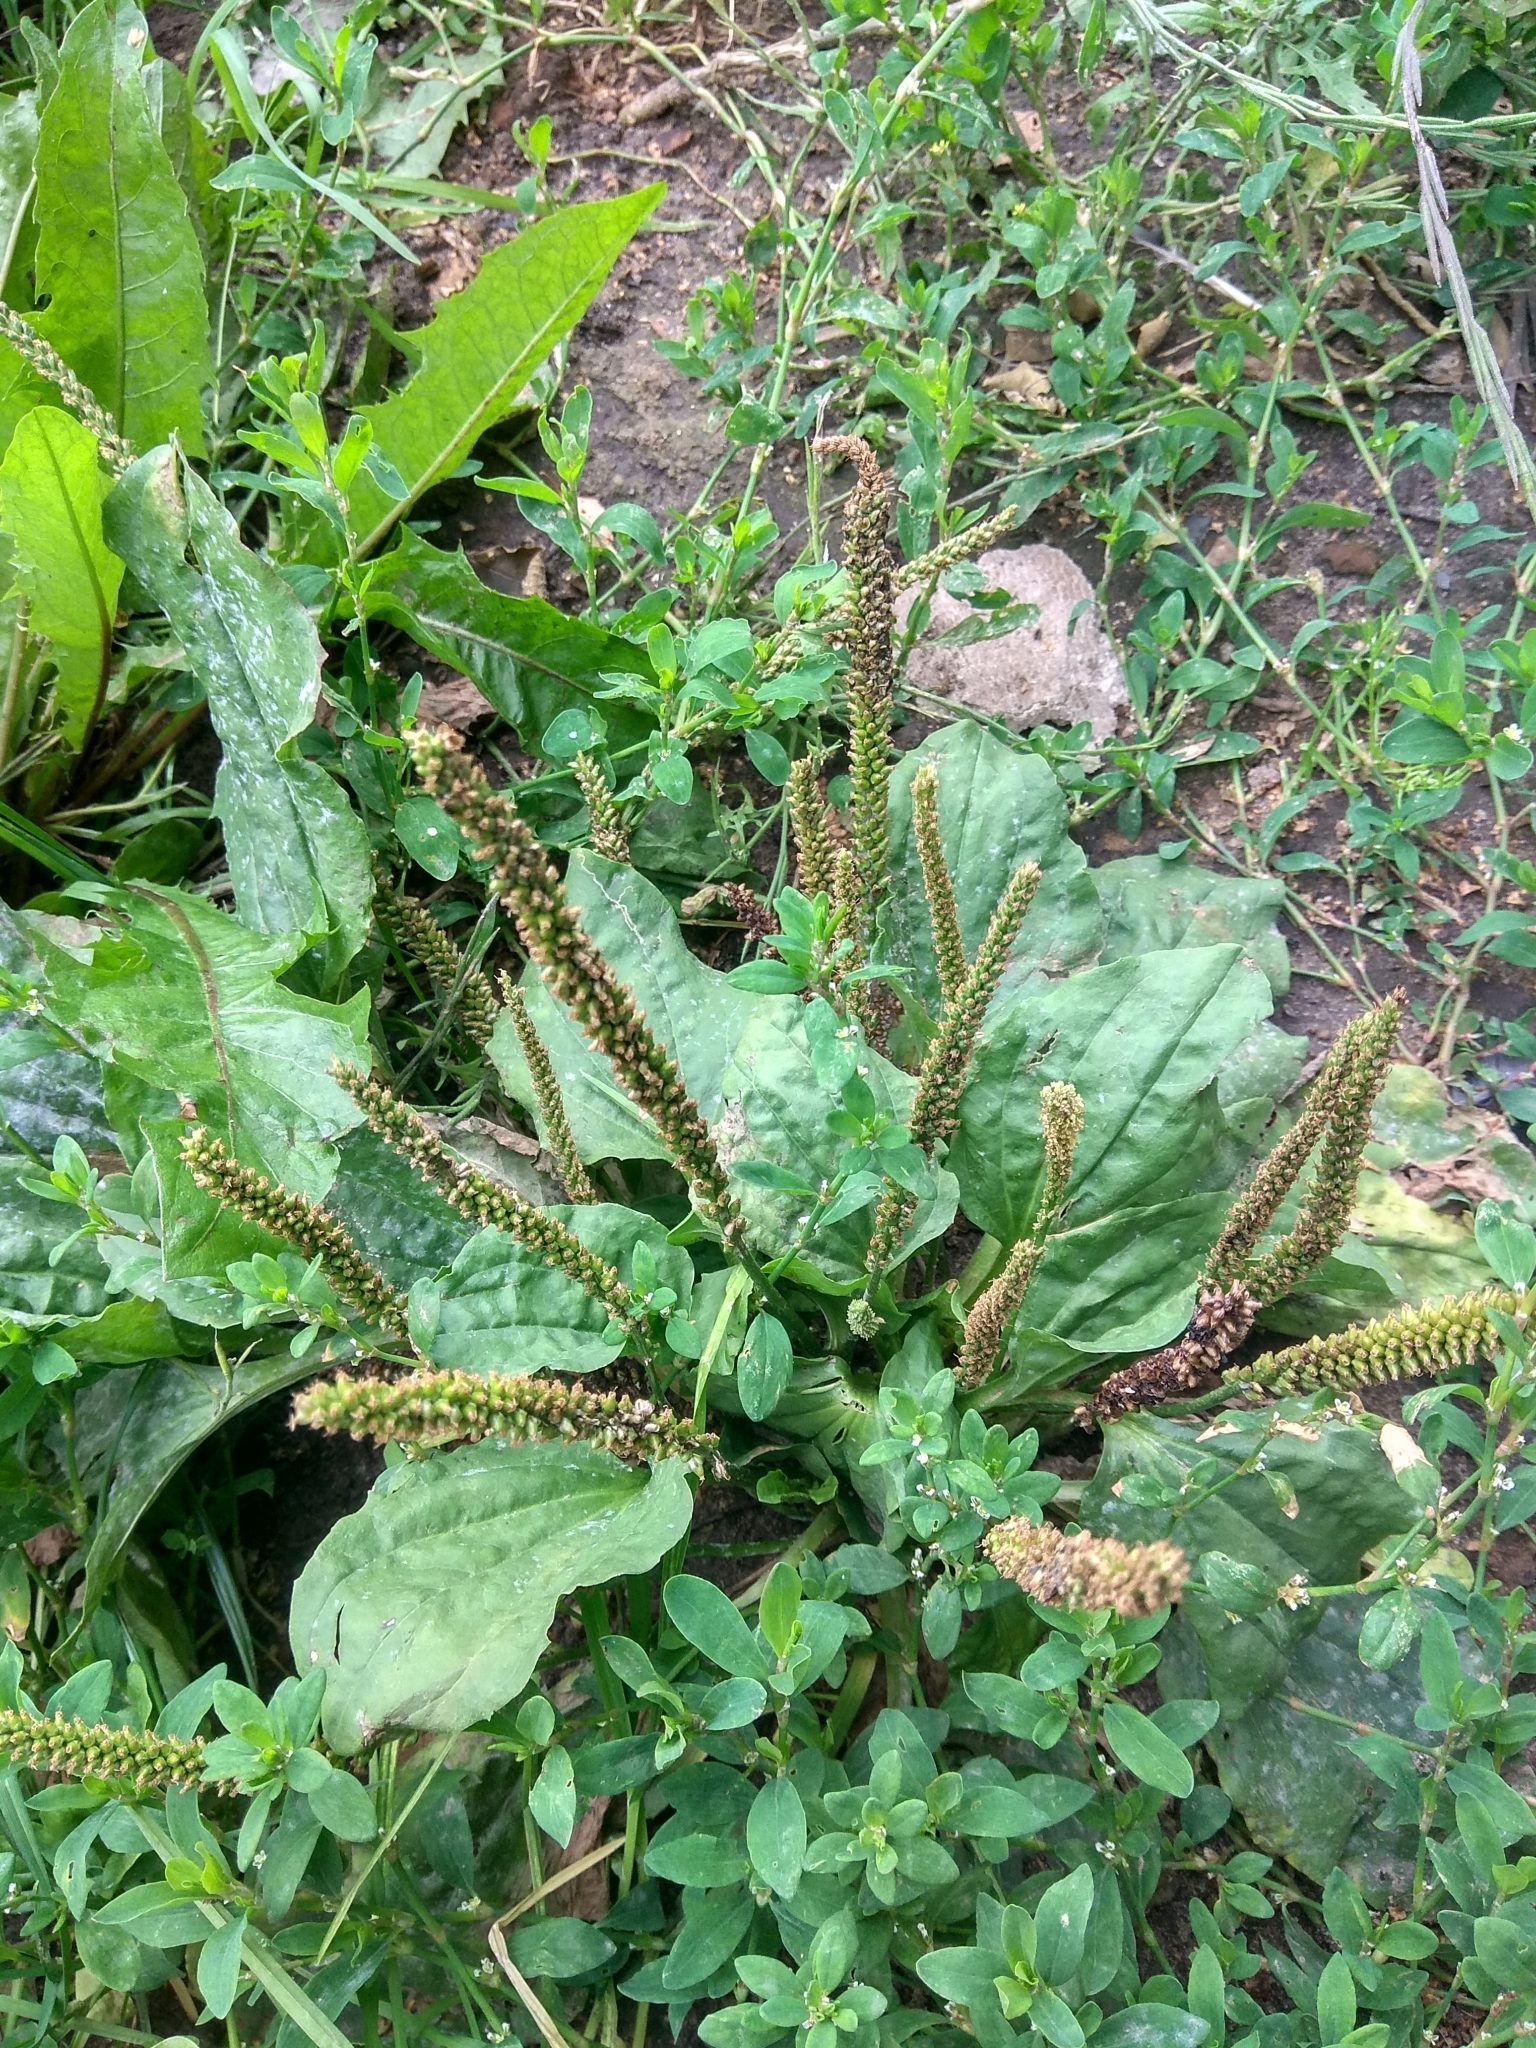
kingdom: Plantae
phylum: Tracheophyta
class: Magnoliopsida
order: Lamiales
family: Plantaginaceae
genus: Plantago
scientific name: Plantago major
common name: Common plantain
